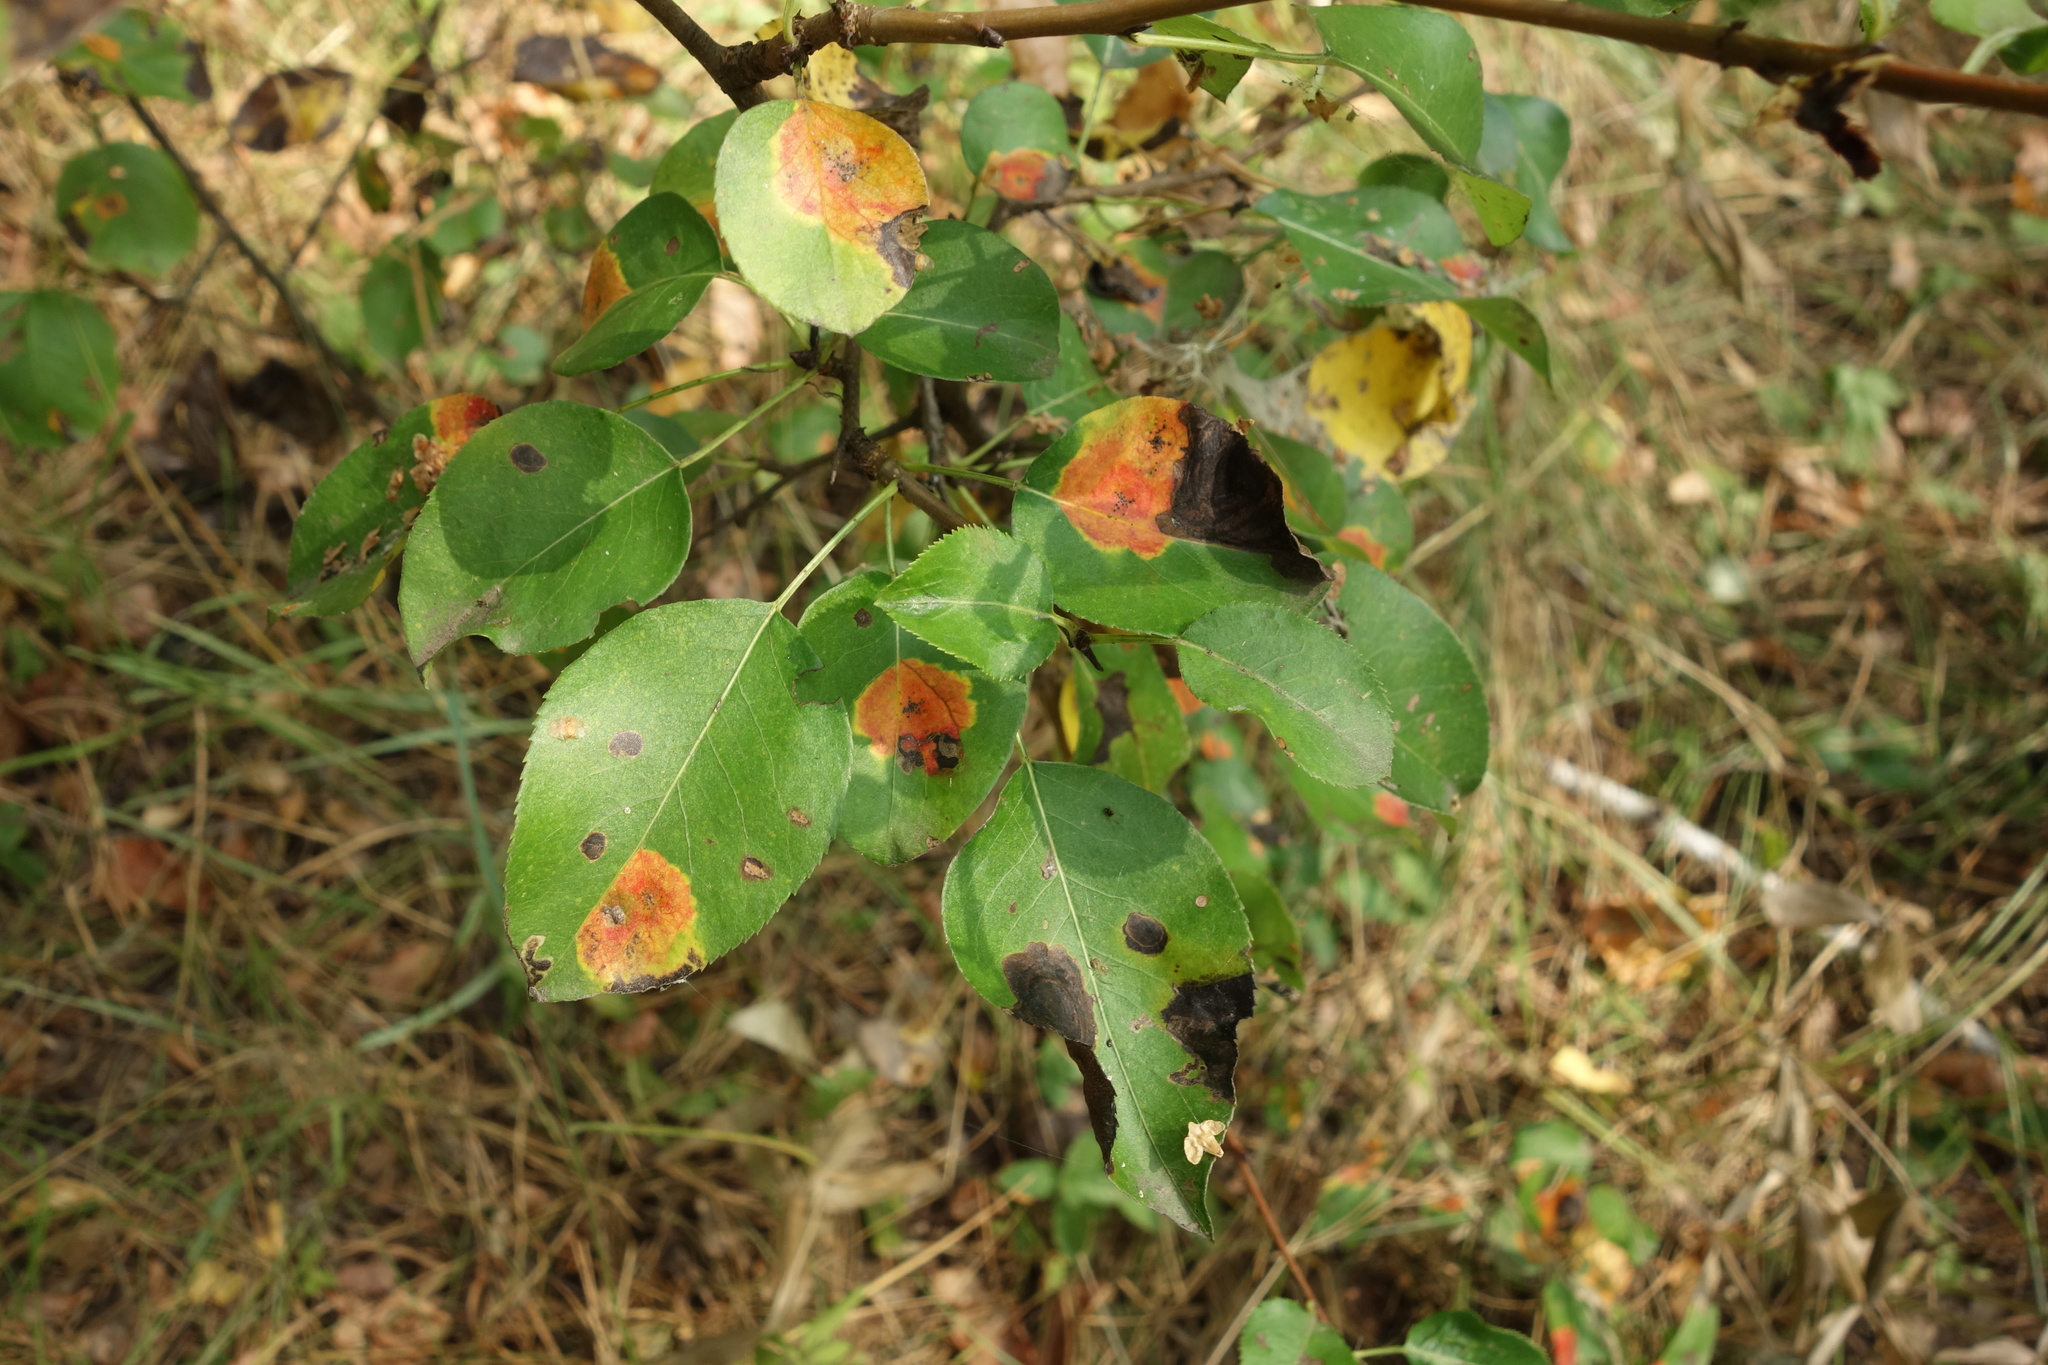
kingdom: Plantae
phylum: Tracheophyta
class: Magnoliopsida
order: Rosales
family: Rosaceae
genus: Pyrus
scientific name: Pyrus communis
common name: Pear
